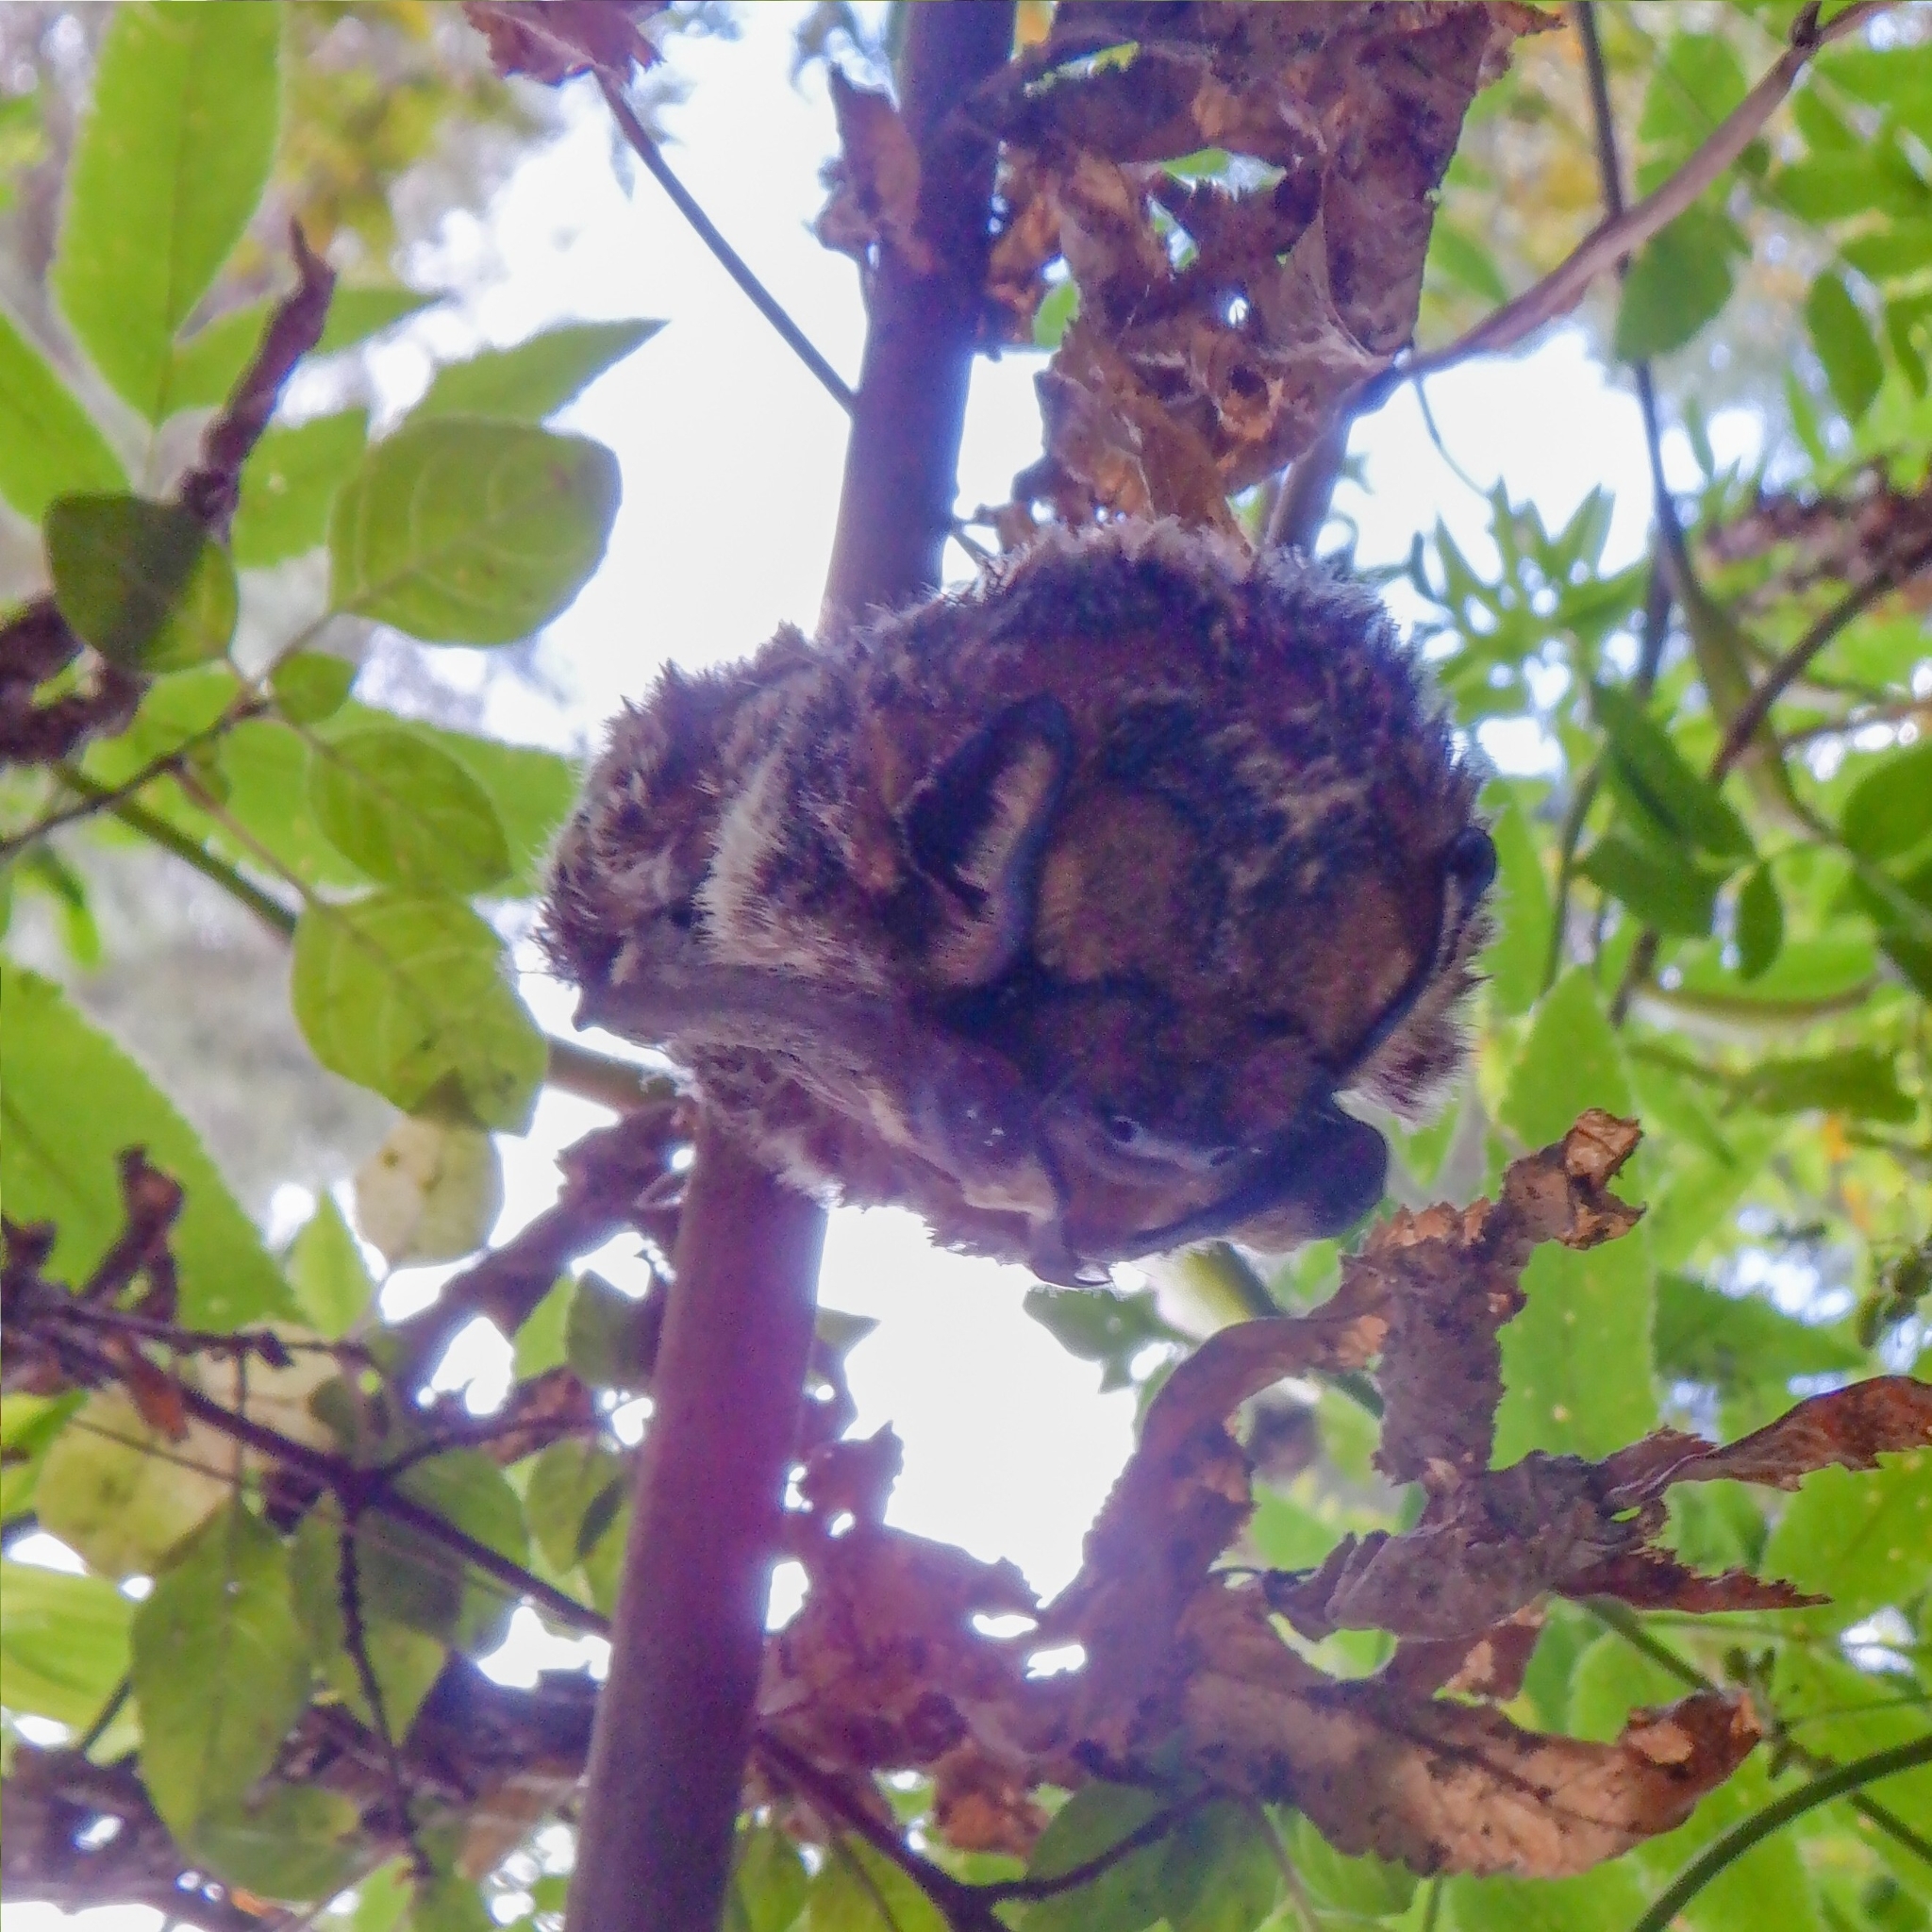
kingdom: Animalia
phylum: Chordata
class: Mammalia
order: Chiroptera
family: Vespertilionidae
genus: Aeorestes
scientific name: Aeorestes cinereus
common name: North american hoary bat
